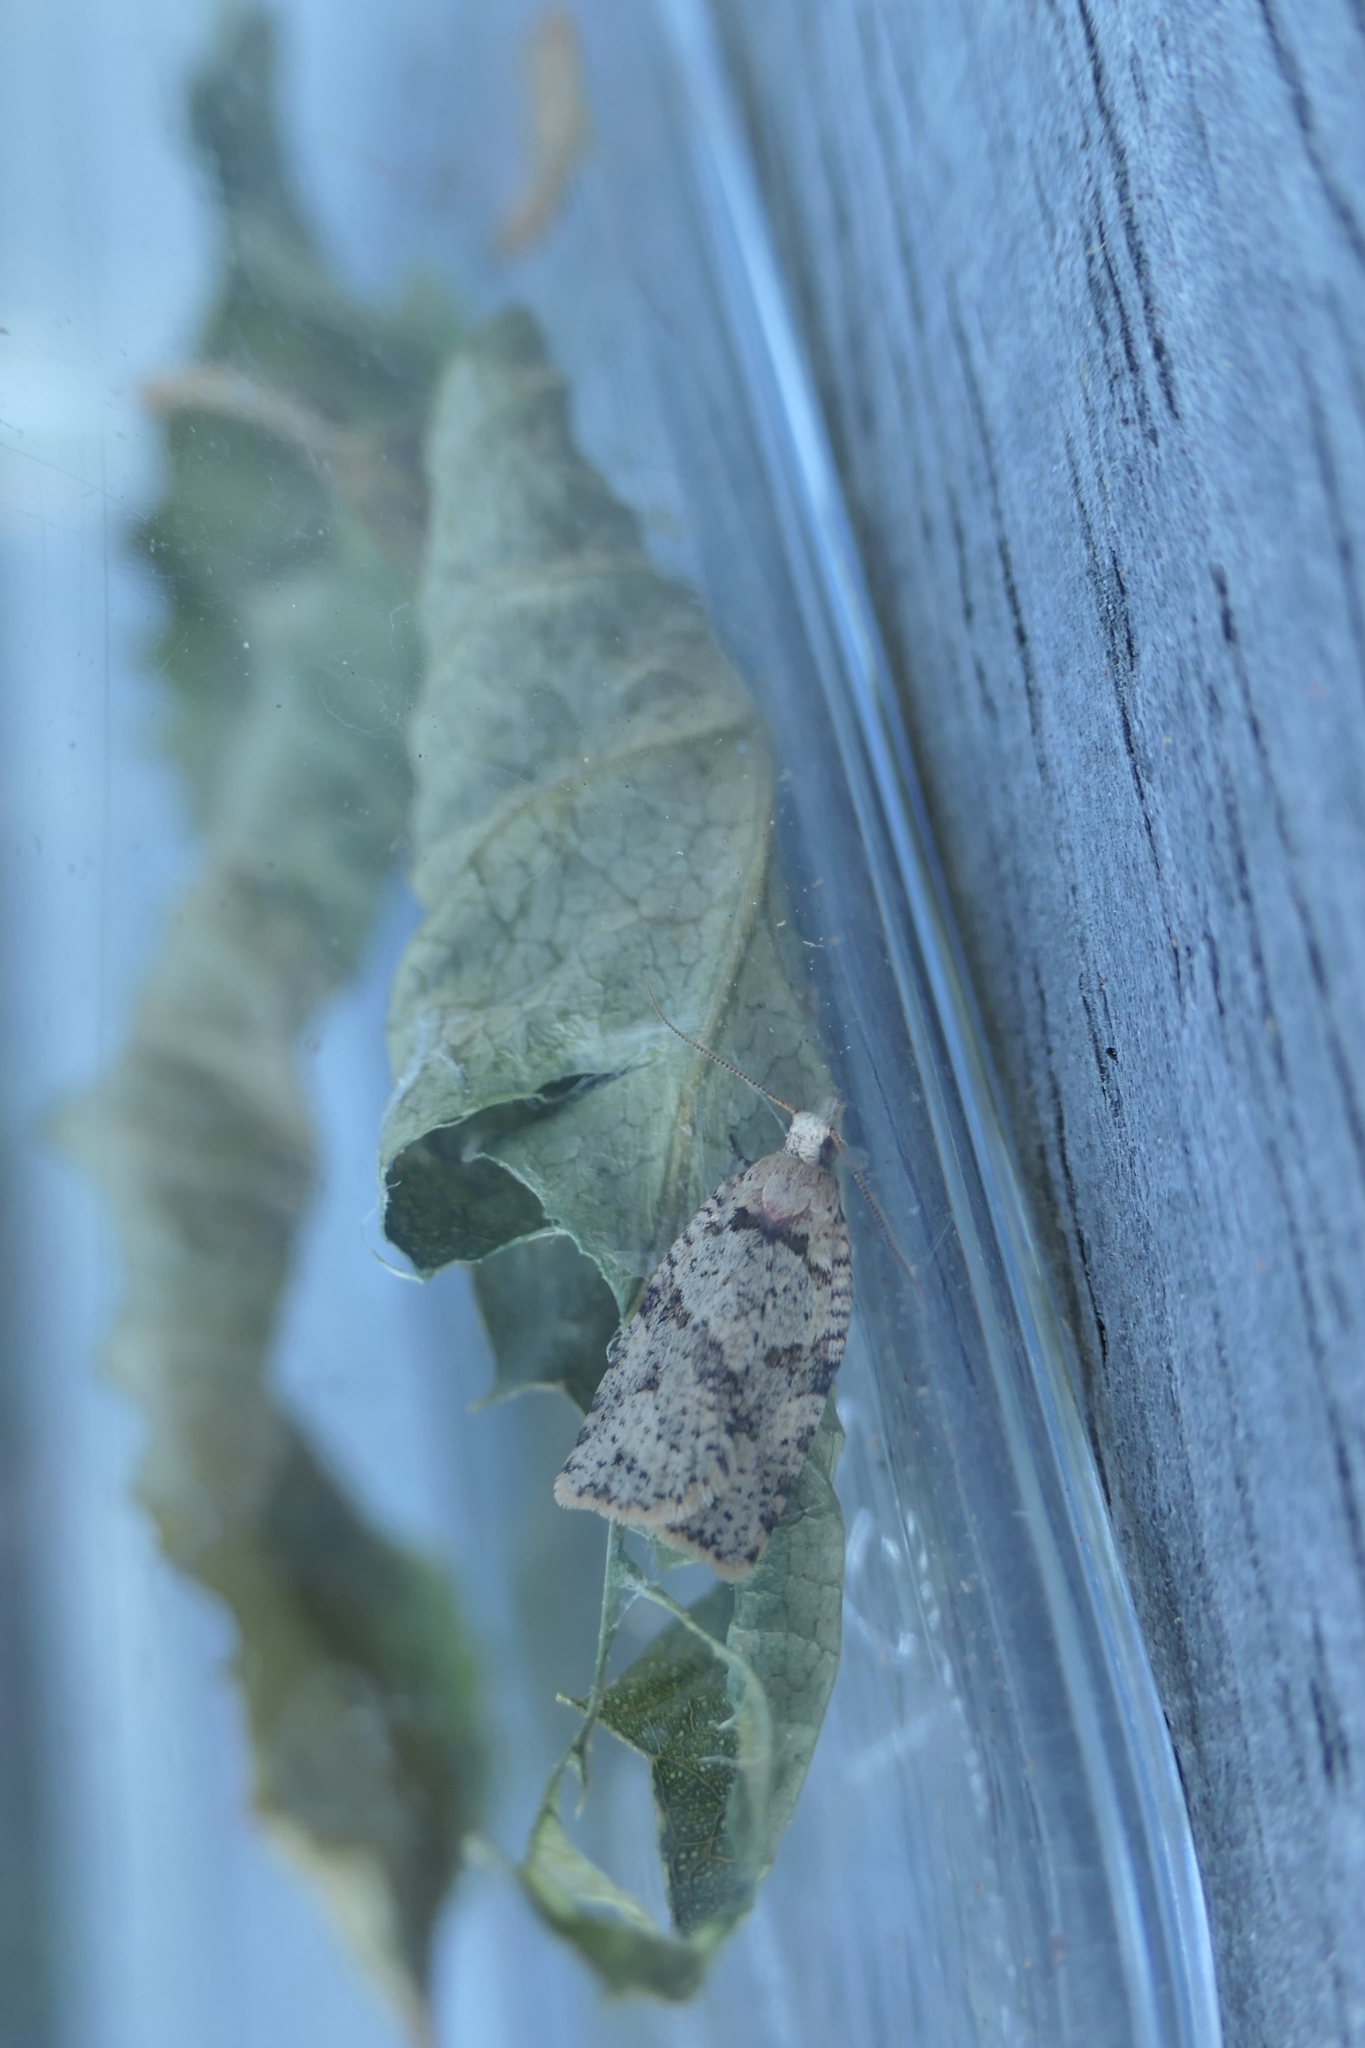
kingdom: Animalia
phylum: Arthropoda
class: Insecta
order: Lepidoptera
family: Tortricidae
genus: Ctenopseustis
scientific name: Ctenopseustis obliquana
